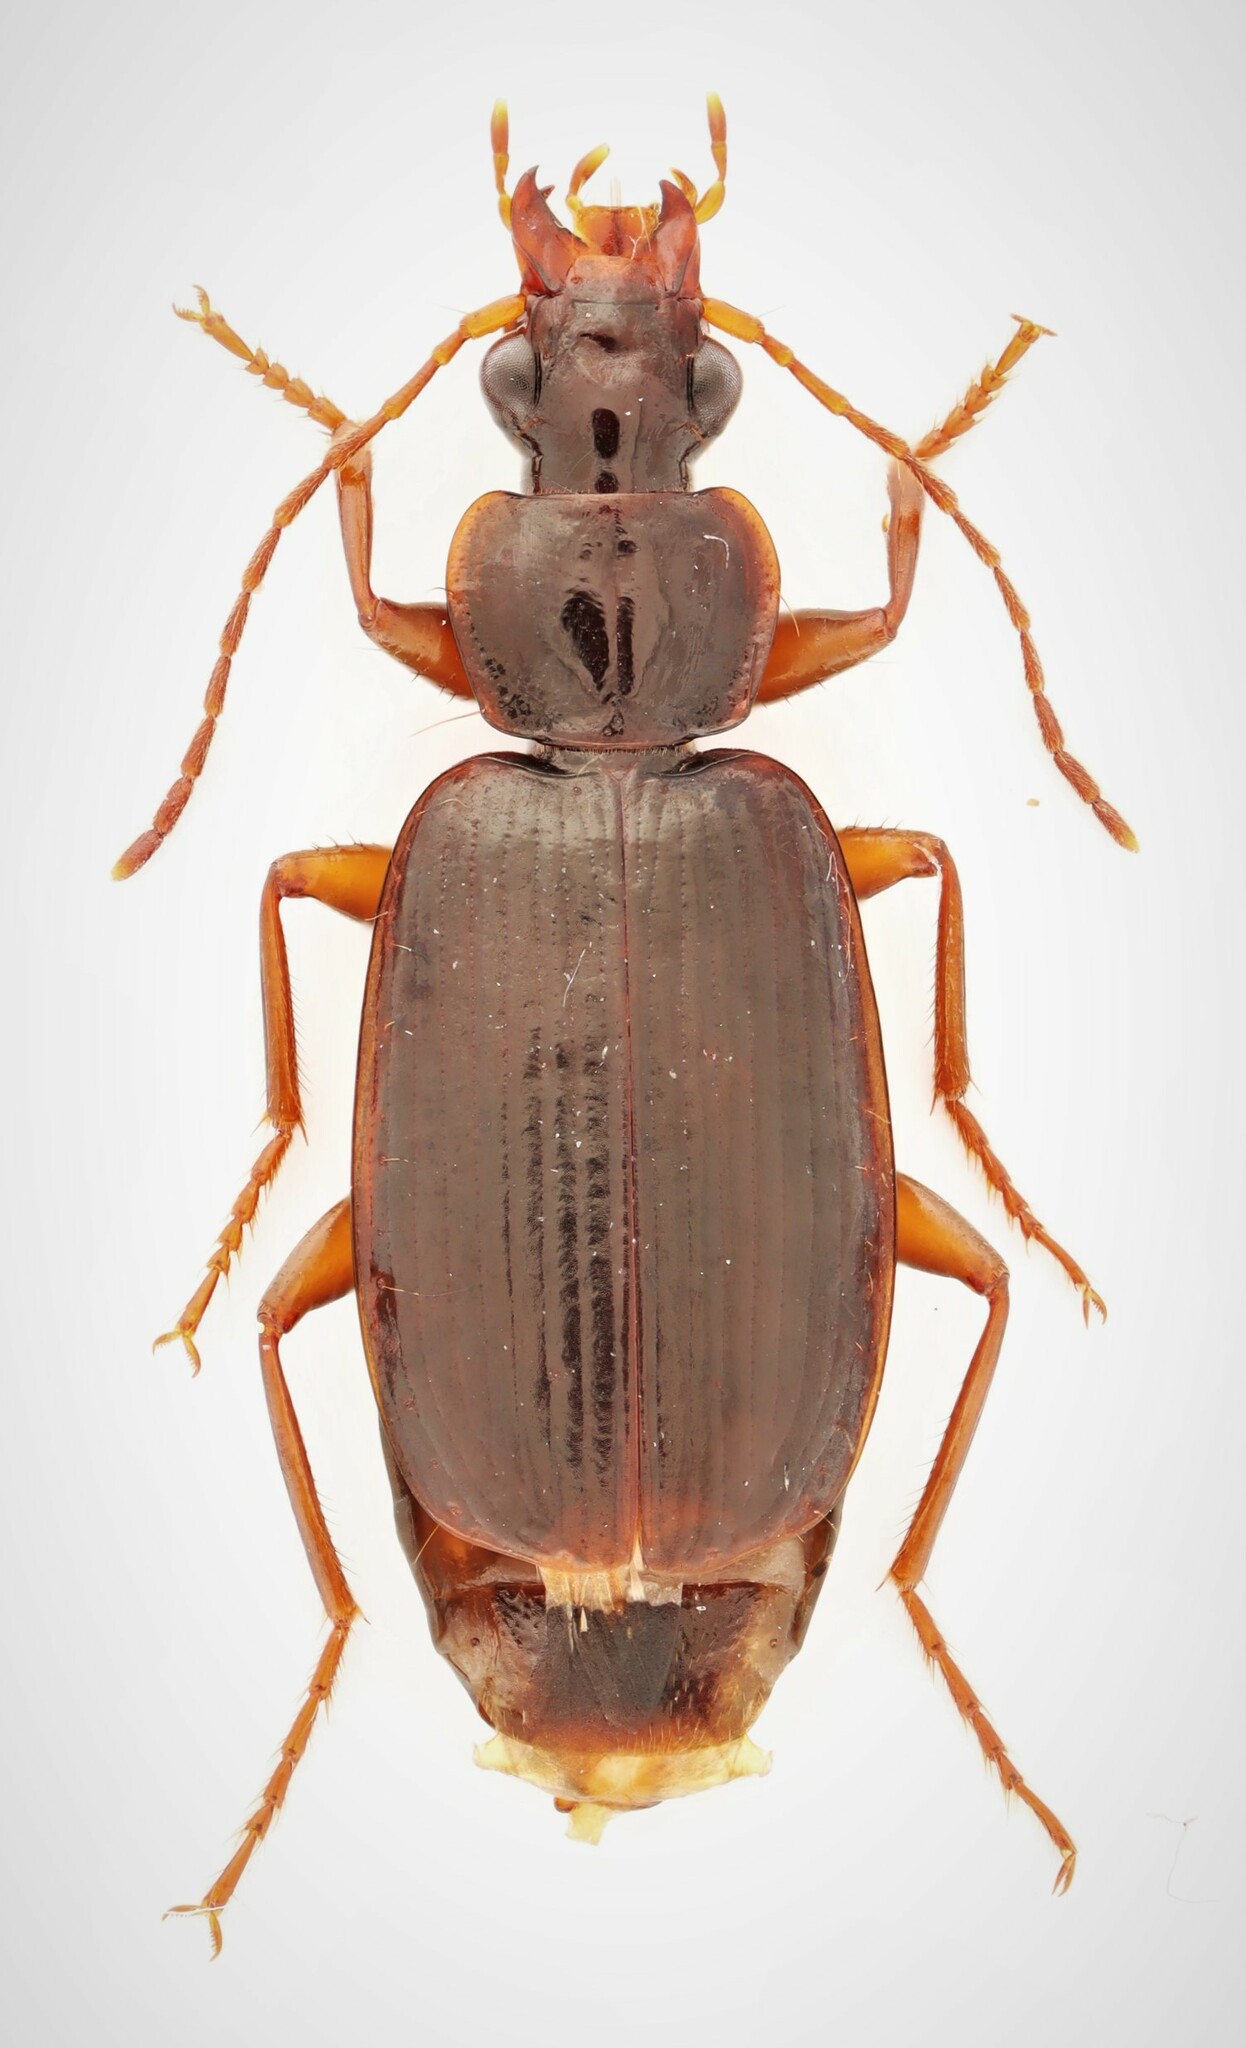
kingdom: Animalia
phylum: Arthropoda
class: Insecta
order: Coleoptera
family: Carabidae
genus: Pinacodera
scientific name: Pinacodera platicollis
